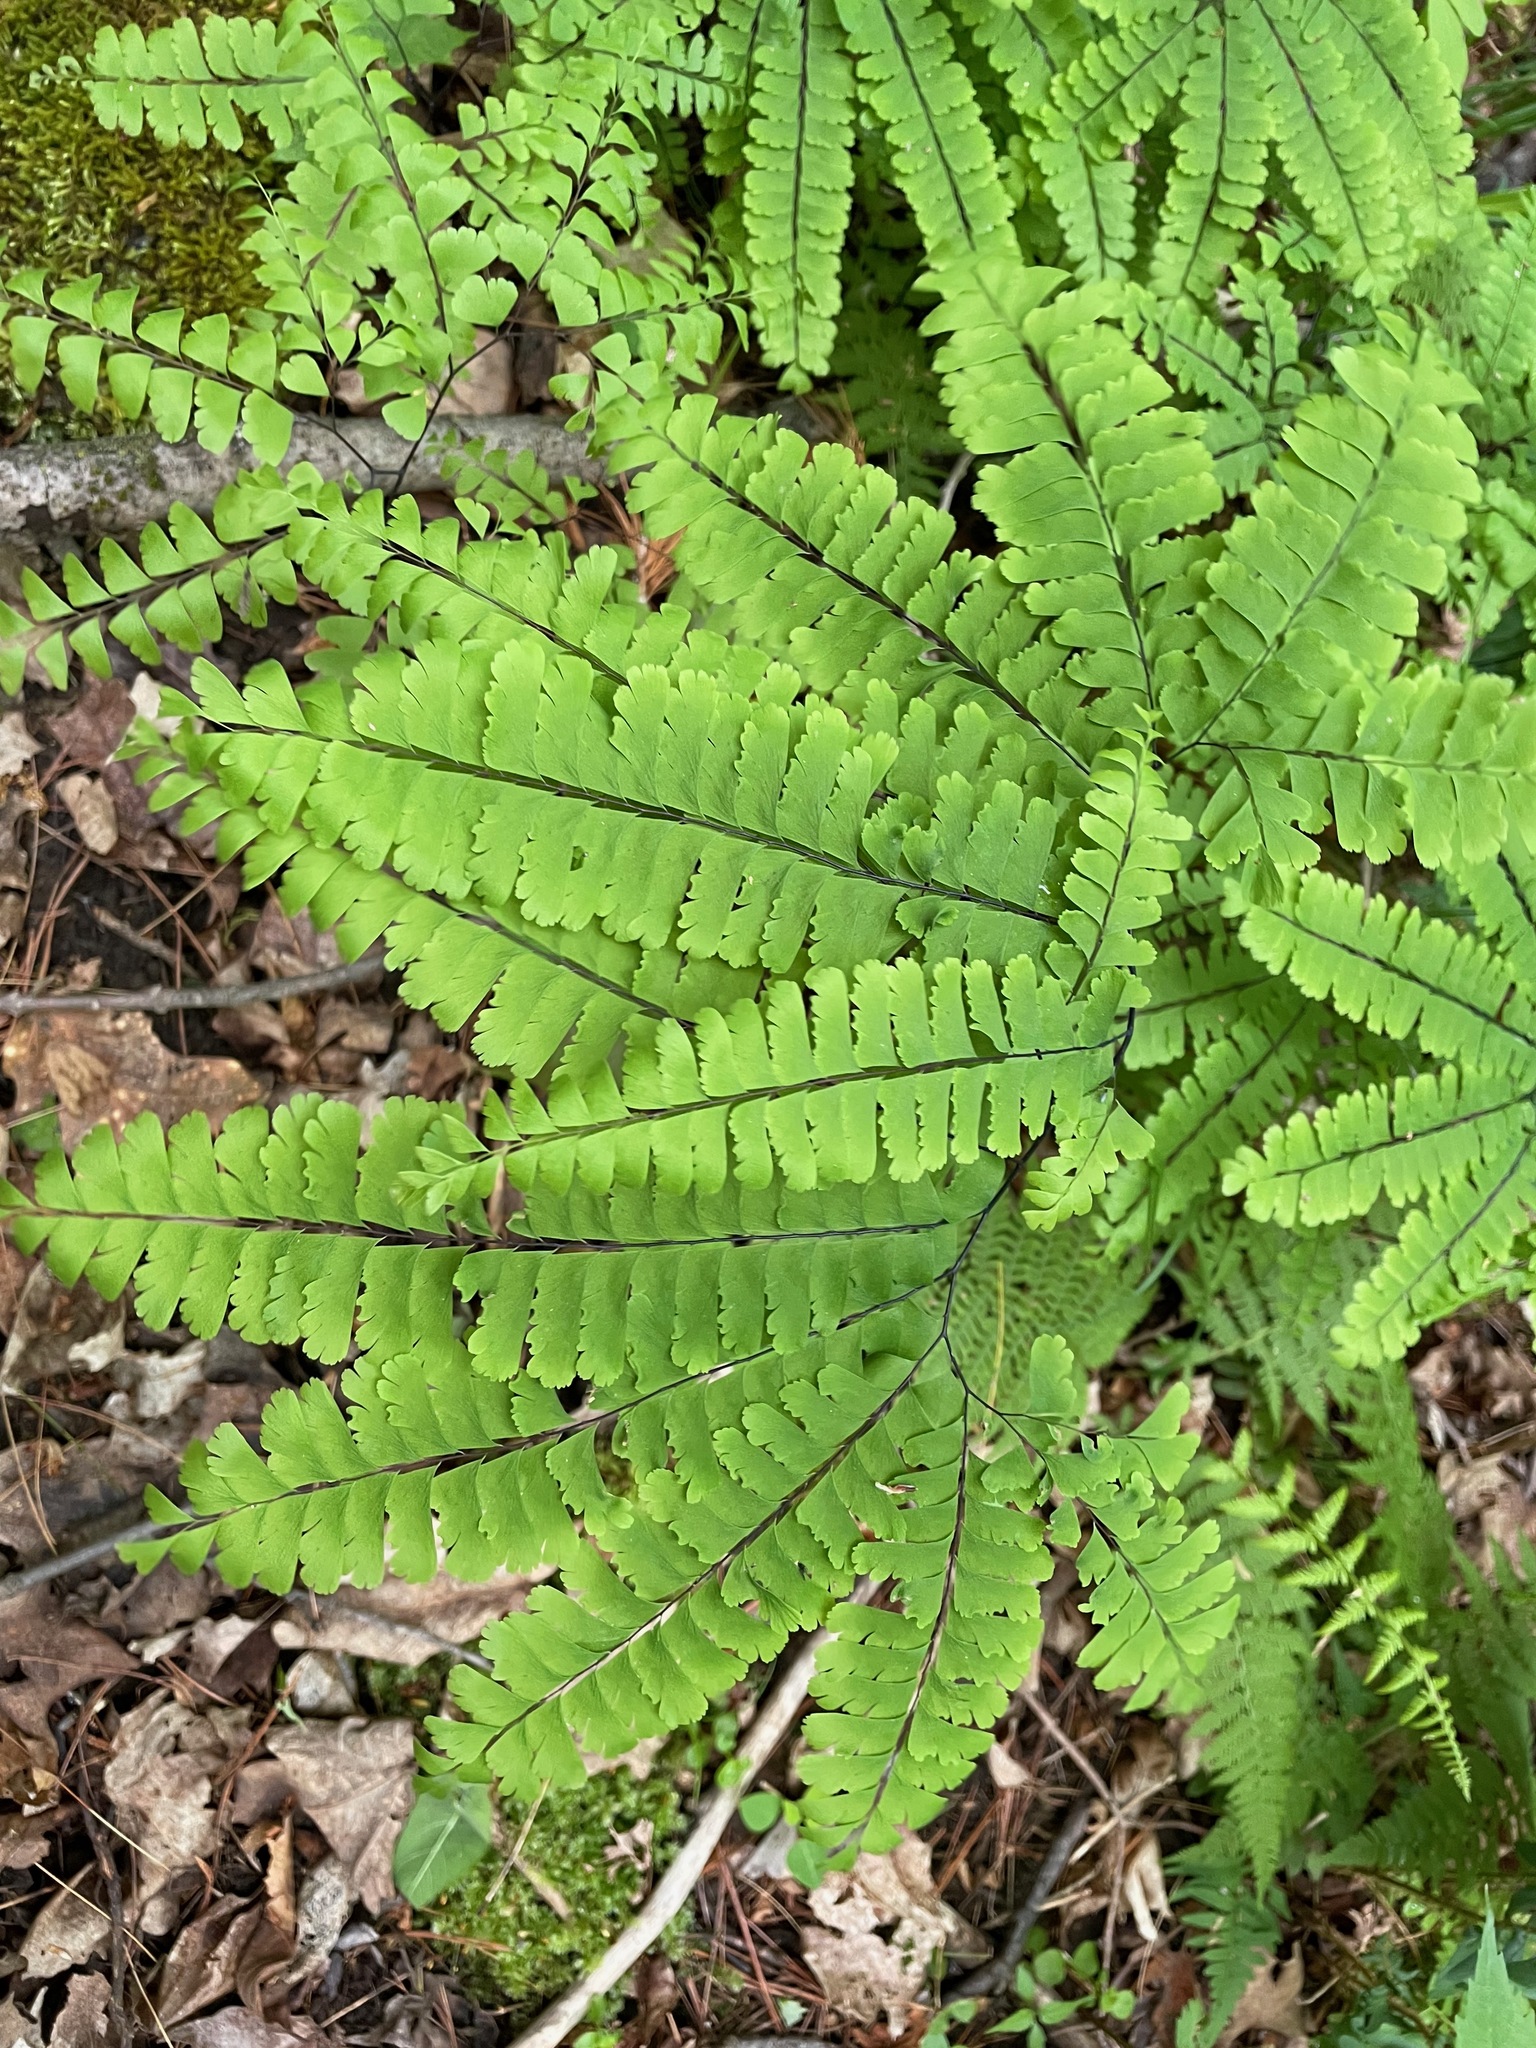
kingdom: Plantae
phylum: Tracheophyta
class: Polypodiopsida
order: Polypodiales
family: Pteridaceae
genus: Adiantum
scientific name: Adiantum pedatum
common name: Five-finger fern
